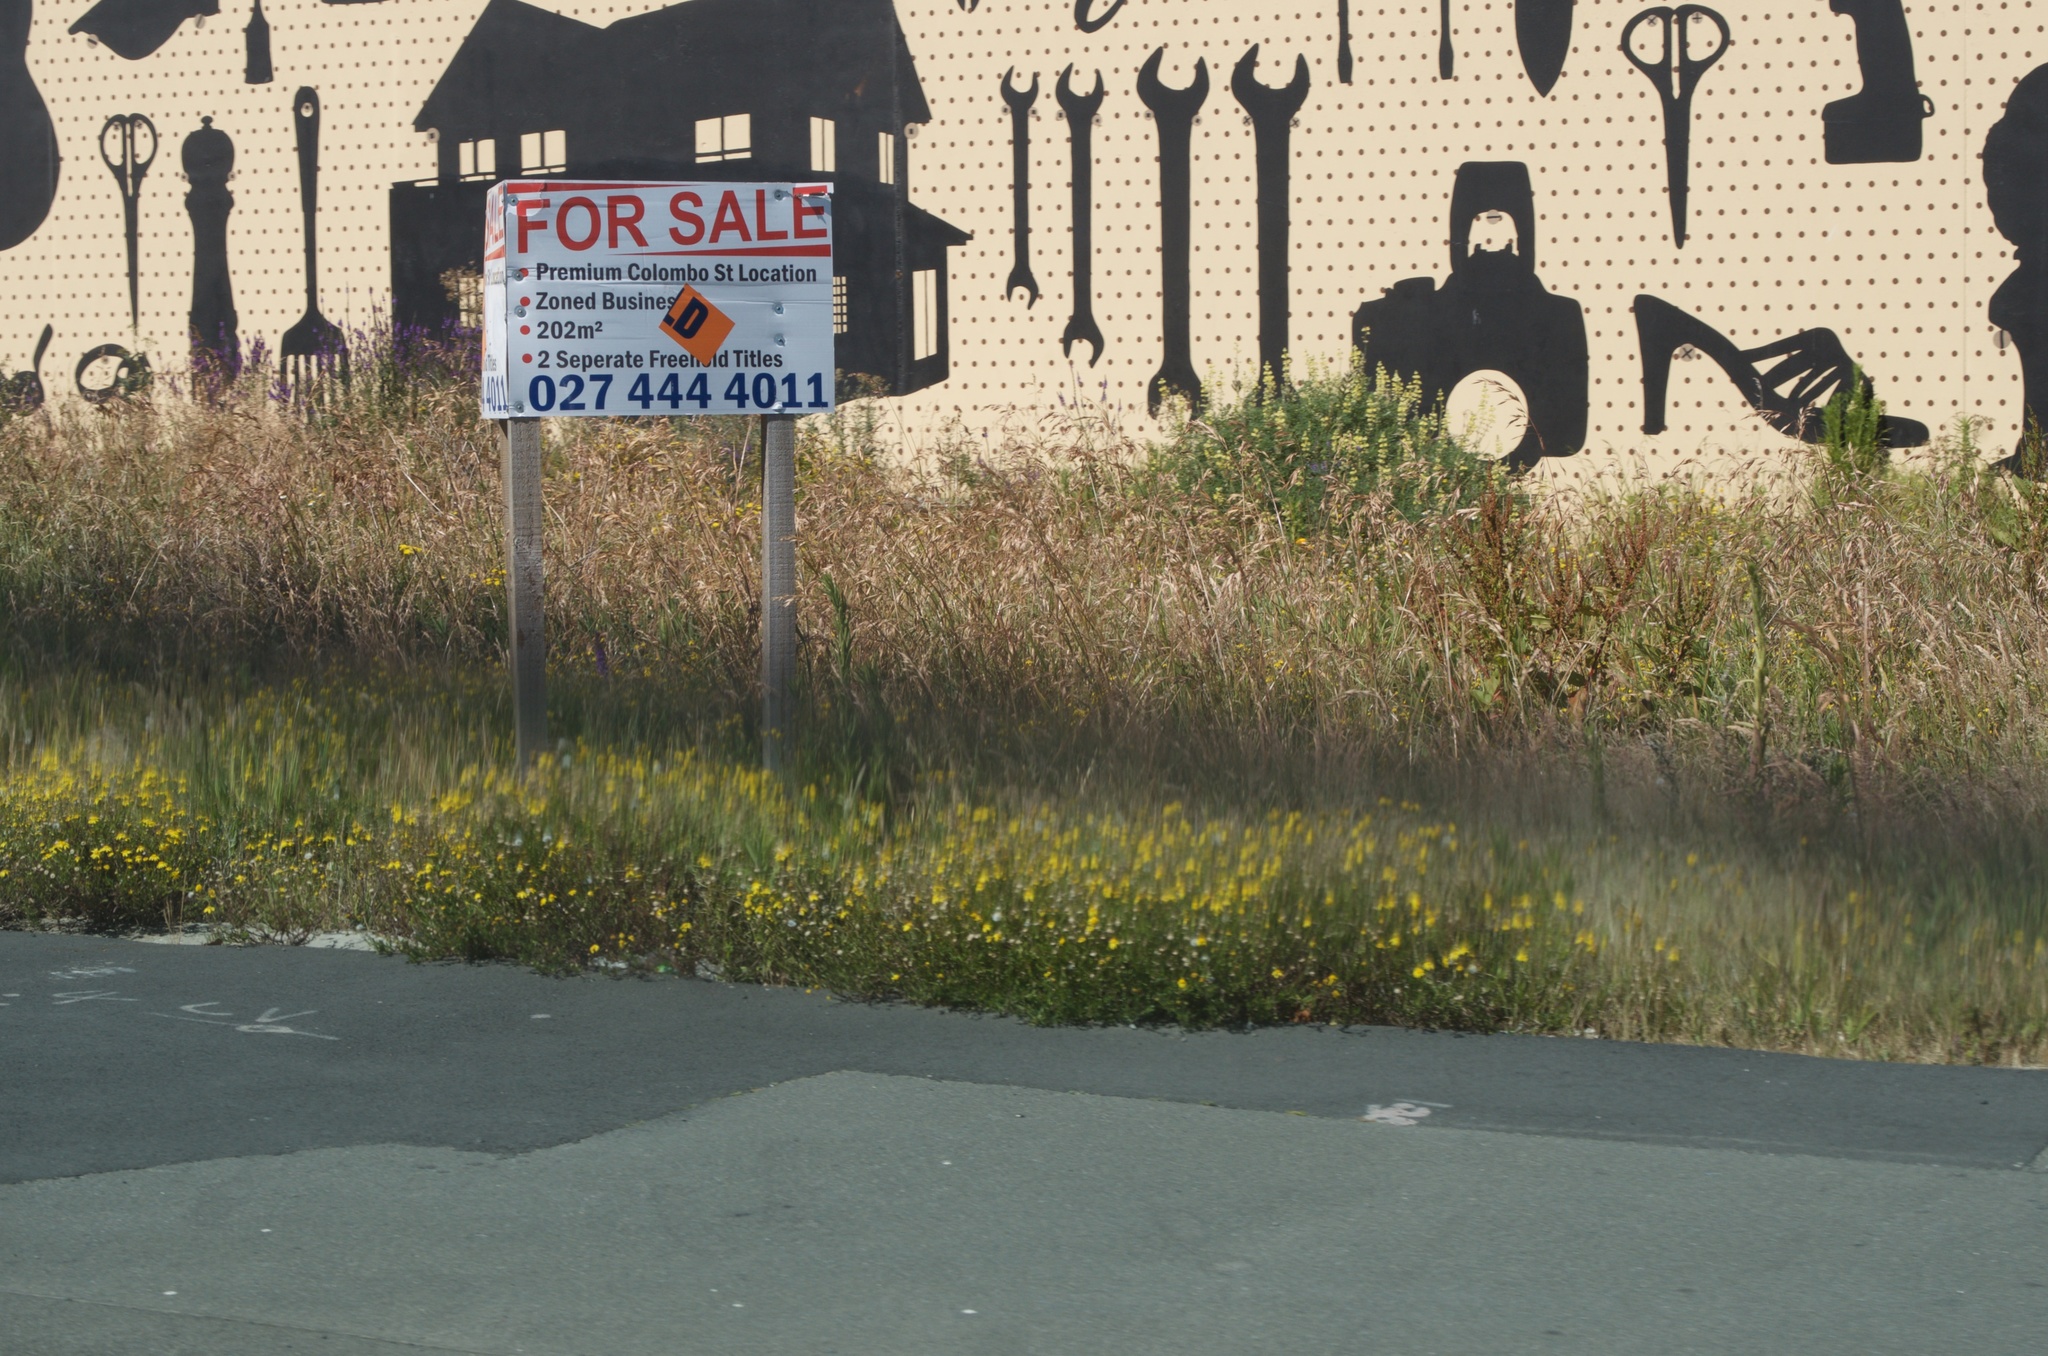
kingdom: Plantae
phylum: Tracheophyta
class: Magnoliopsida
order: Asterales
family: Asteraceae
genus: Senecio
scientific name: Senecio skirrhodon
